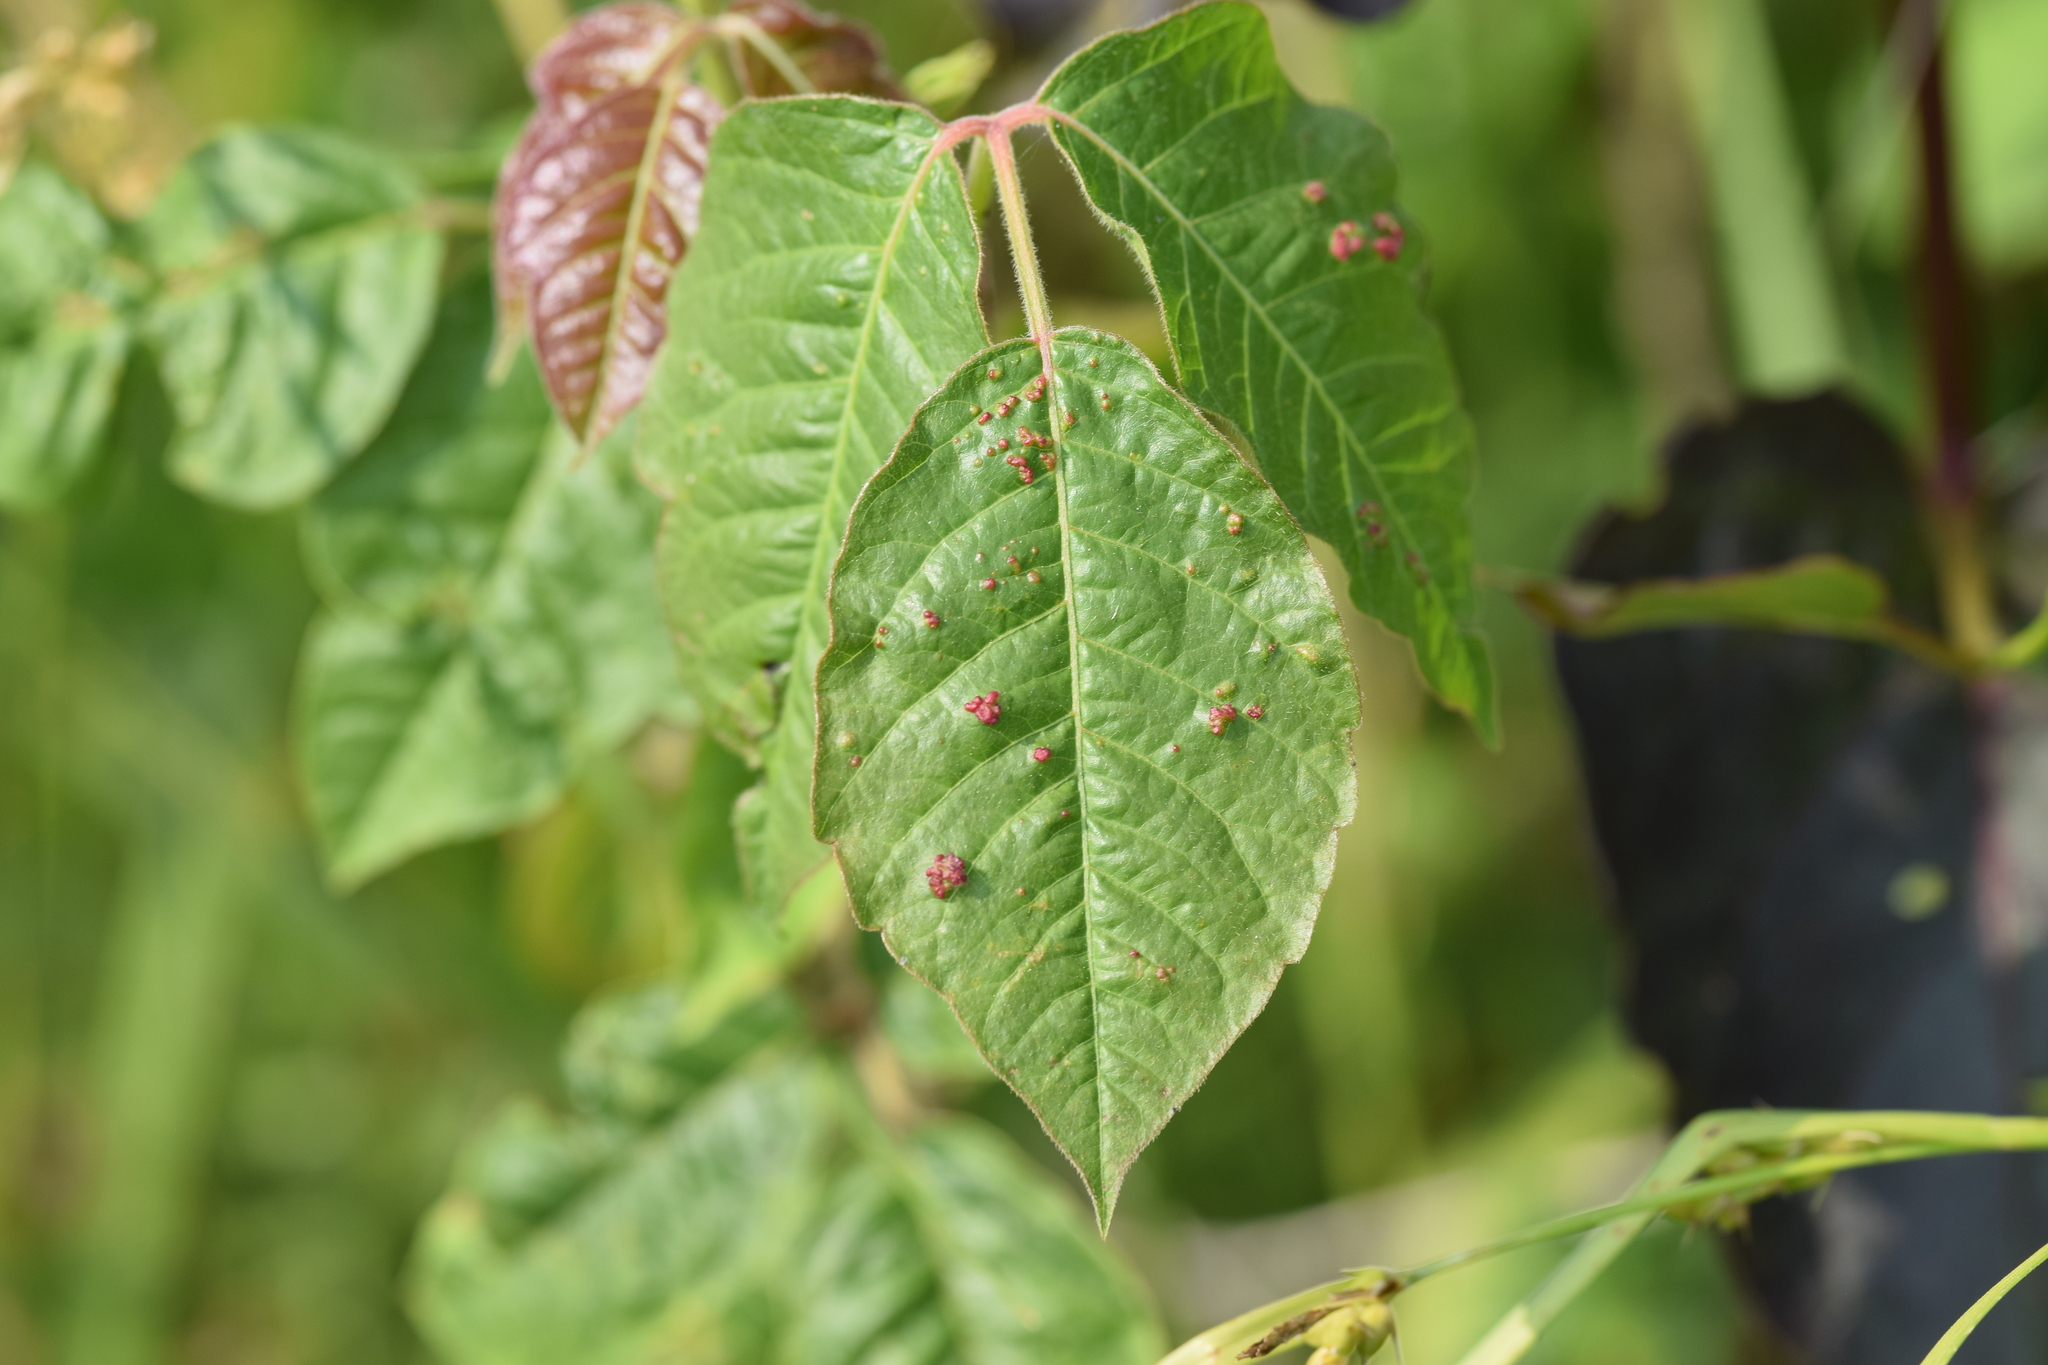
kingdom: Animalia
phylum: Arthropoda
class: Arachnida
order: Trombidiformes
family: Eriophyidae
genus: Aculops
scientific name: Aculops
